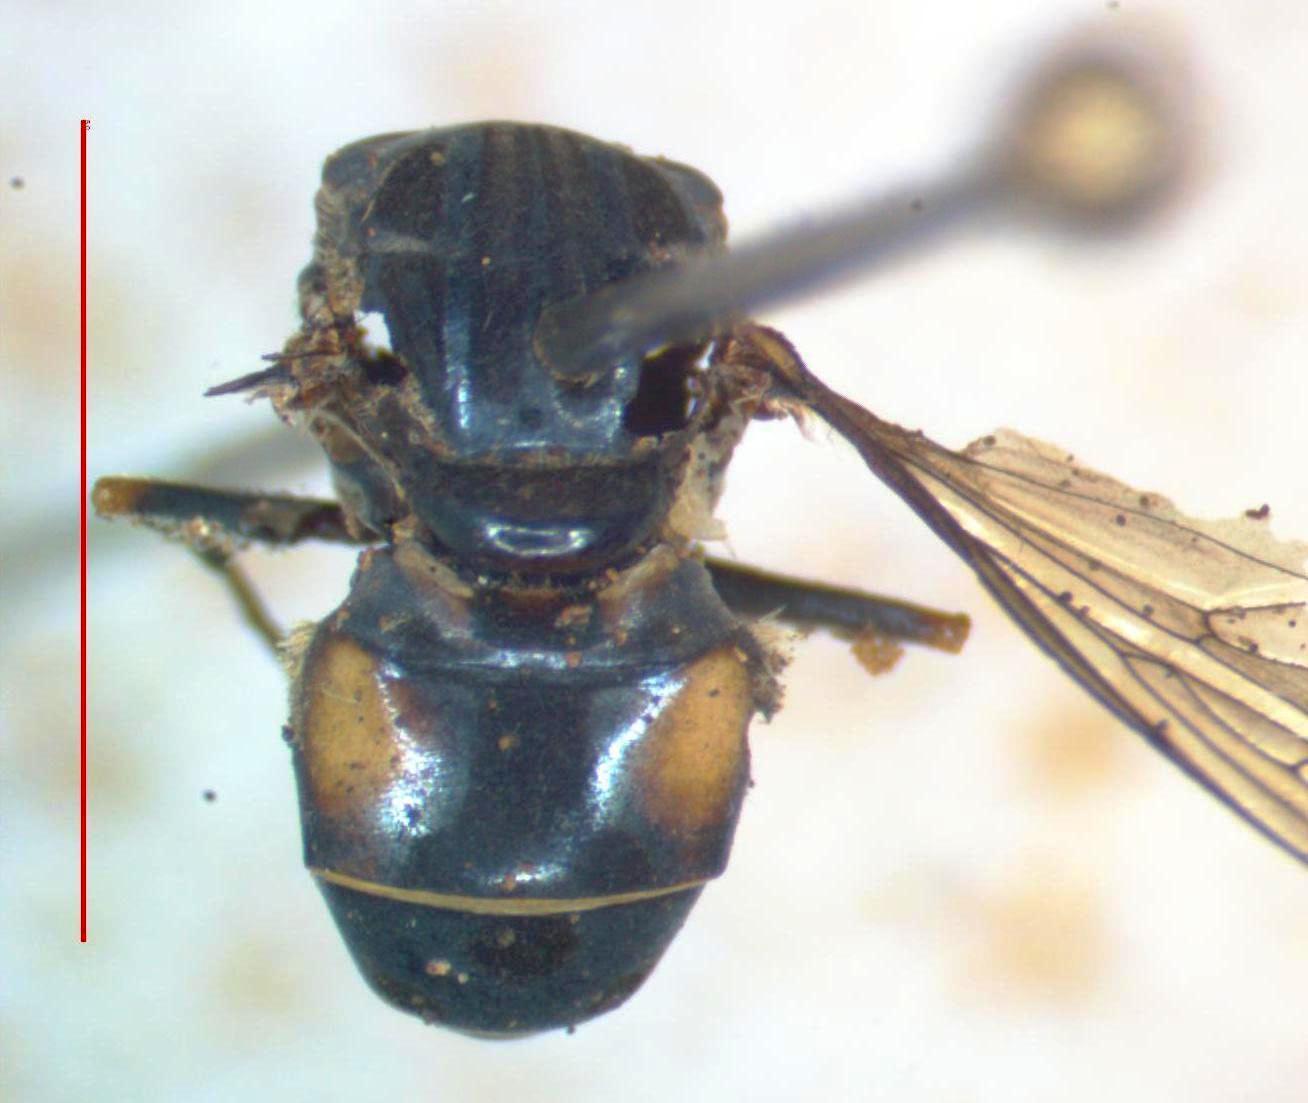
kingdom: Animalia
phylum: Arthropoda
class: Insecta
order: Diptera
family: Syrphidae
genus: Lycastrirhyncha
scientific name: Lycastrirhyncha nitens
